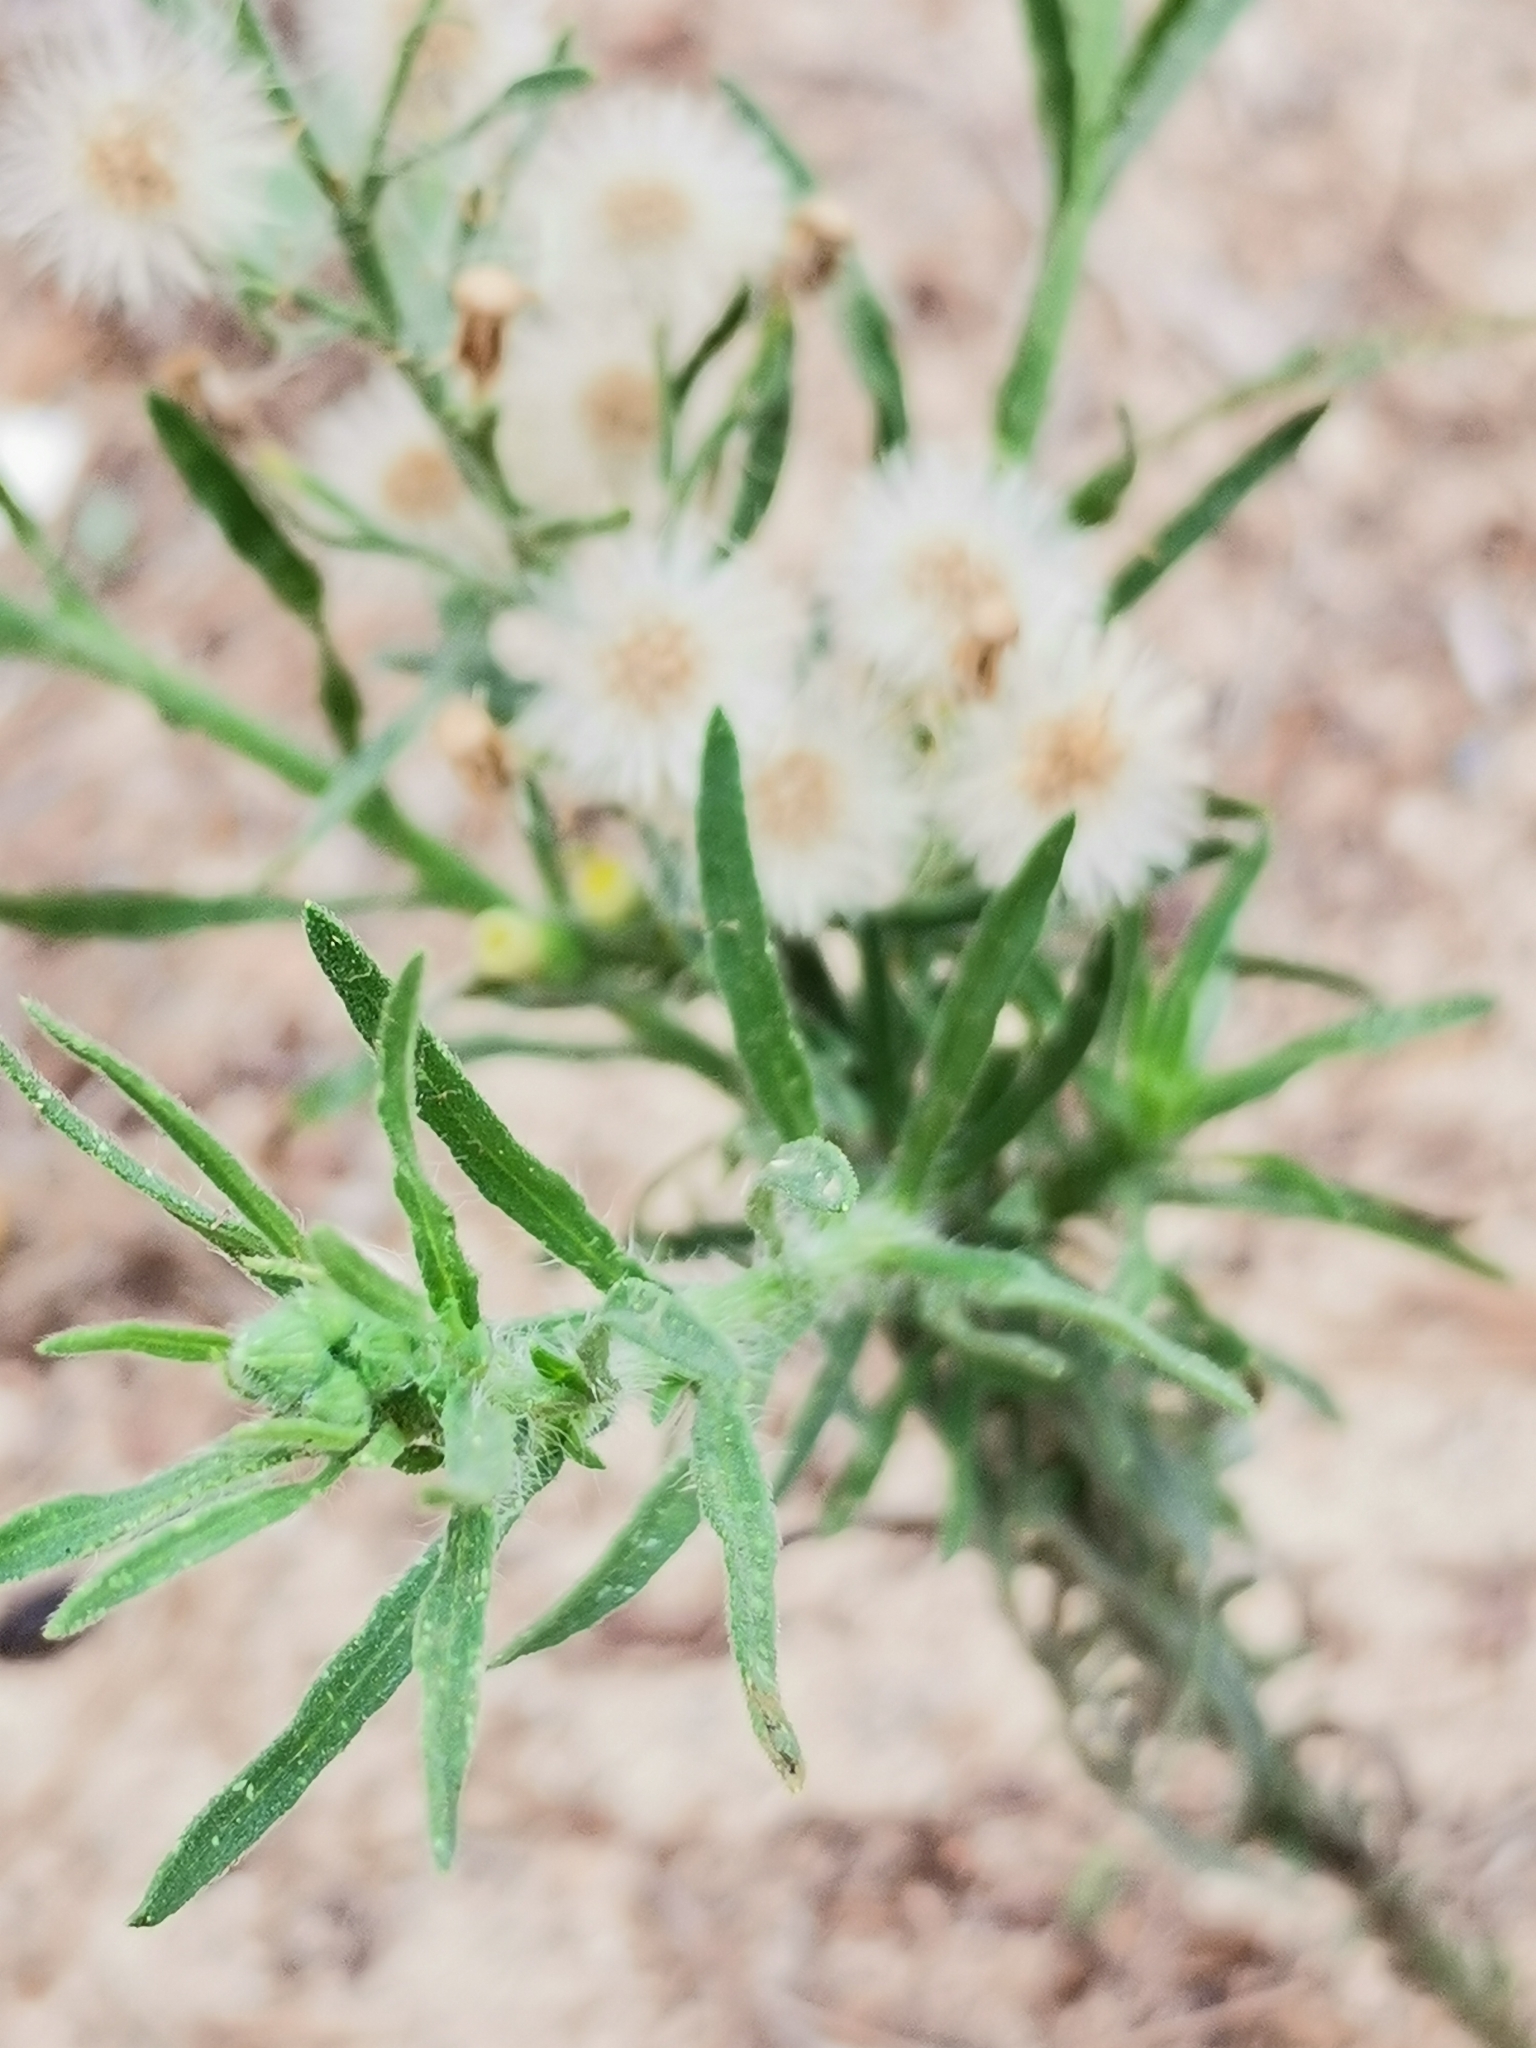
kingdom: Plantae
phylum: Tracheophyta
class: Magnoliopsida
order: Asterales
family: Asteraceae
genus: Erigeron
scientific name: Erigeron bonariensis
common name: Argentine fleabane
